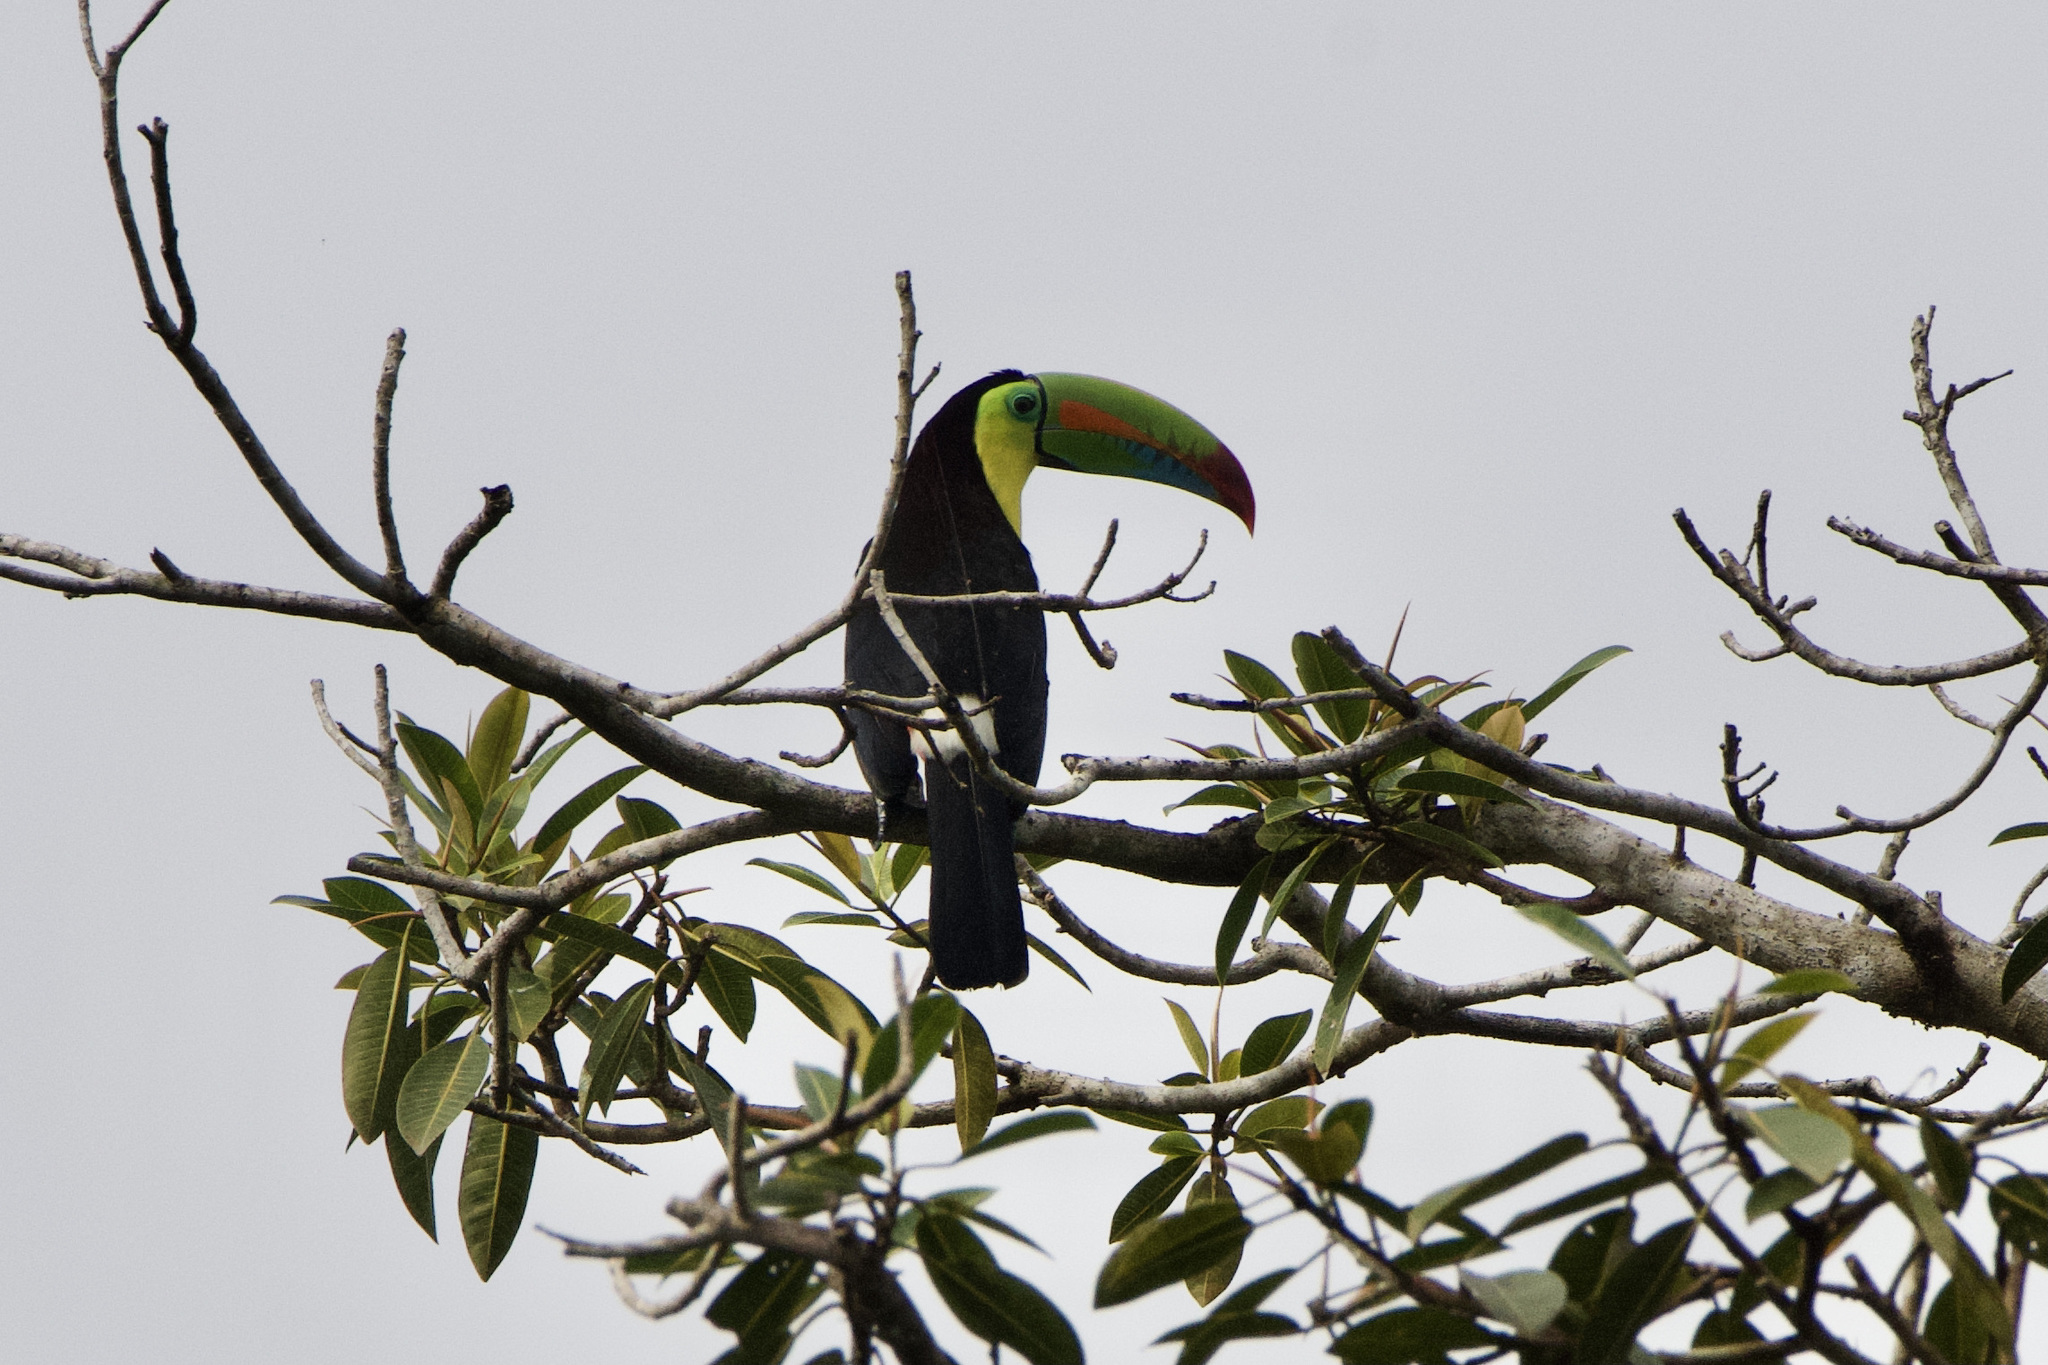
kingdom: Animalia
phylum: Chordata
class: Aves
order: Piciformes
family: Ramphastidae
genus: Ramphastos
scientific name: Ramphastos sulfuratus
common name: Keel-billed toucan
